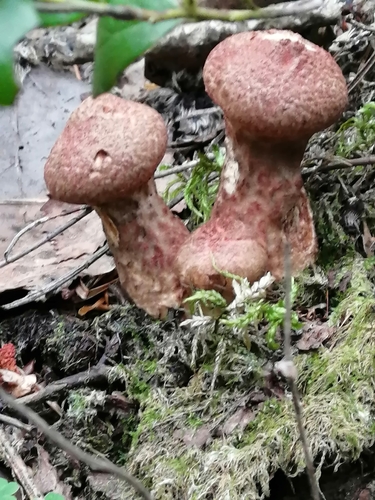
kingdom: Fungi
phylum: Basidiomycota
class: Agaricomycetes
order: Boletales
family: Suillaceae
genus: Suillus
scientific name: Suillus spraguei
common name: Painted suillus
